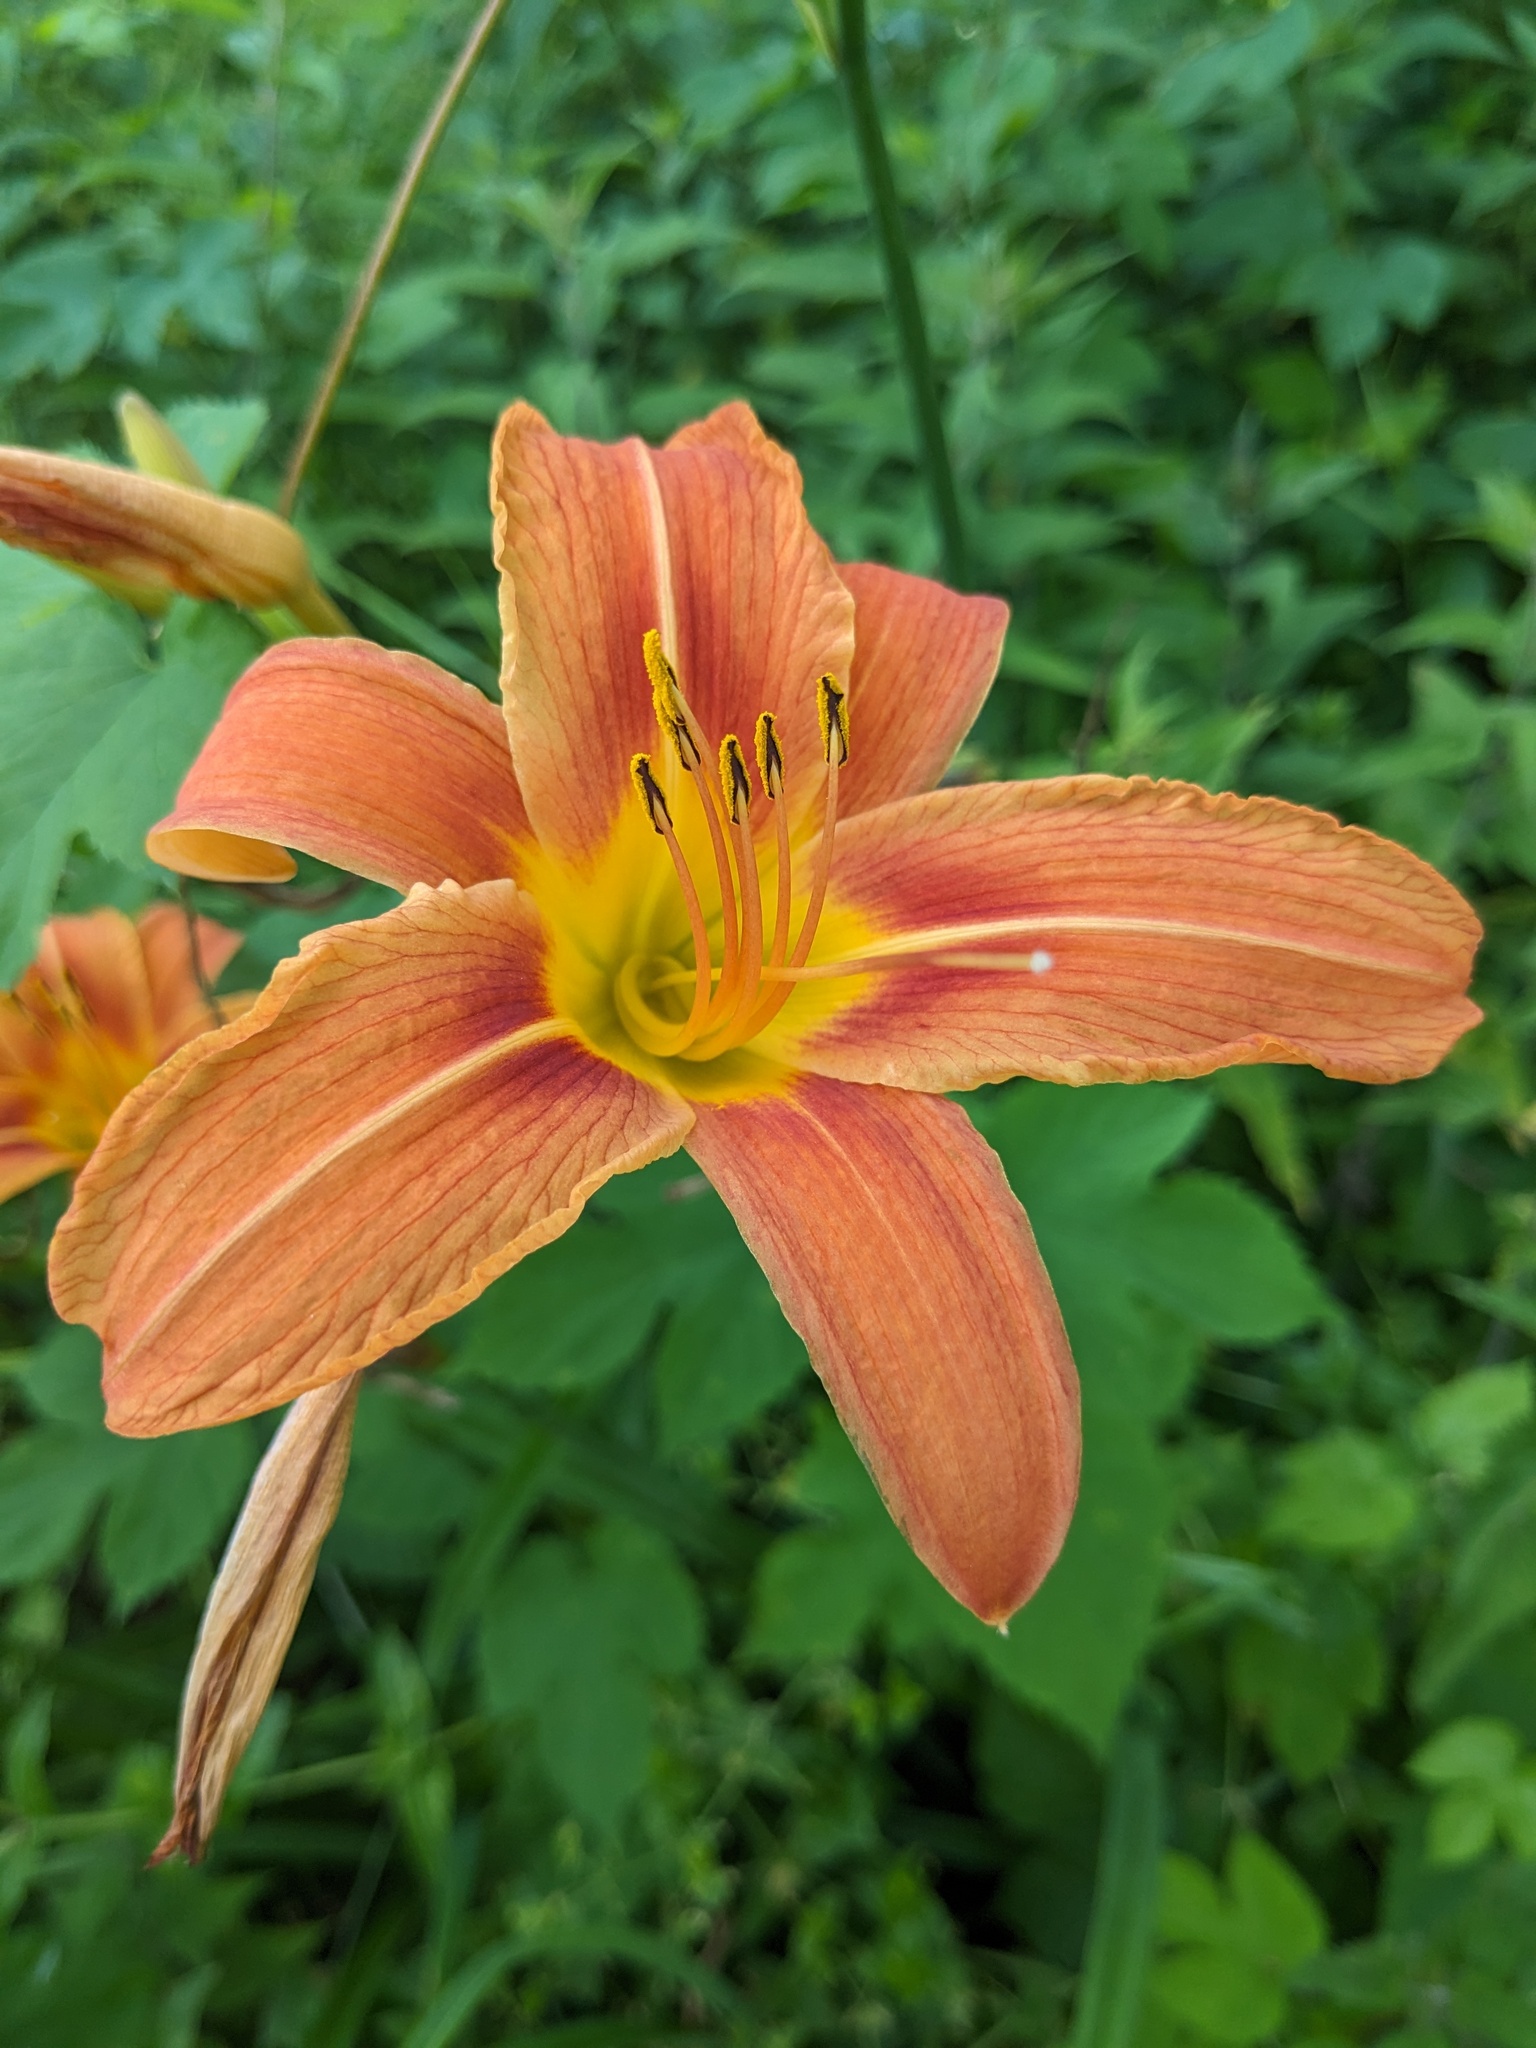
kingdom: Plantae
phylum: Tracheophyta
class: Liliopsida
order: Asparagales
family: Asphodelaceae
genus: Hemerocallis
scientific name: Hemerocallis fulva
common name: Orange day-lily
